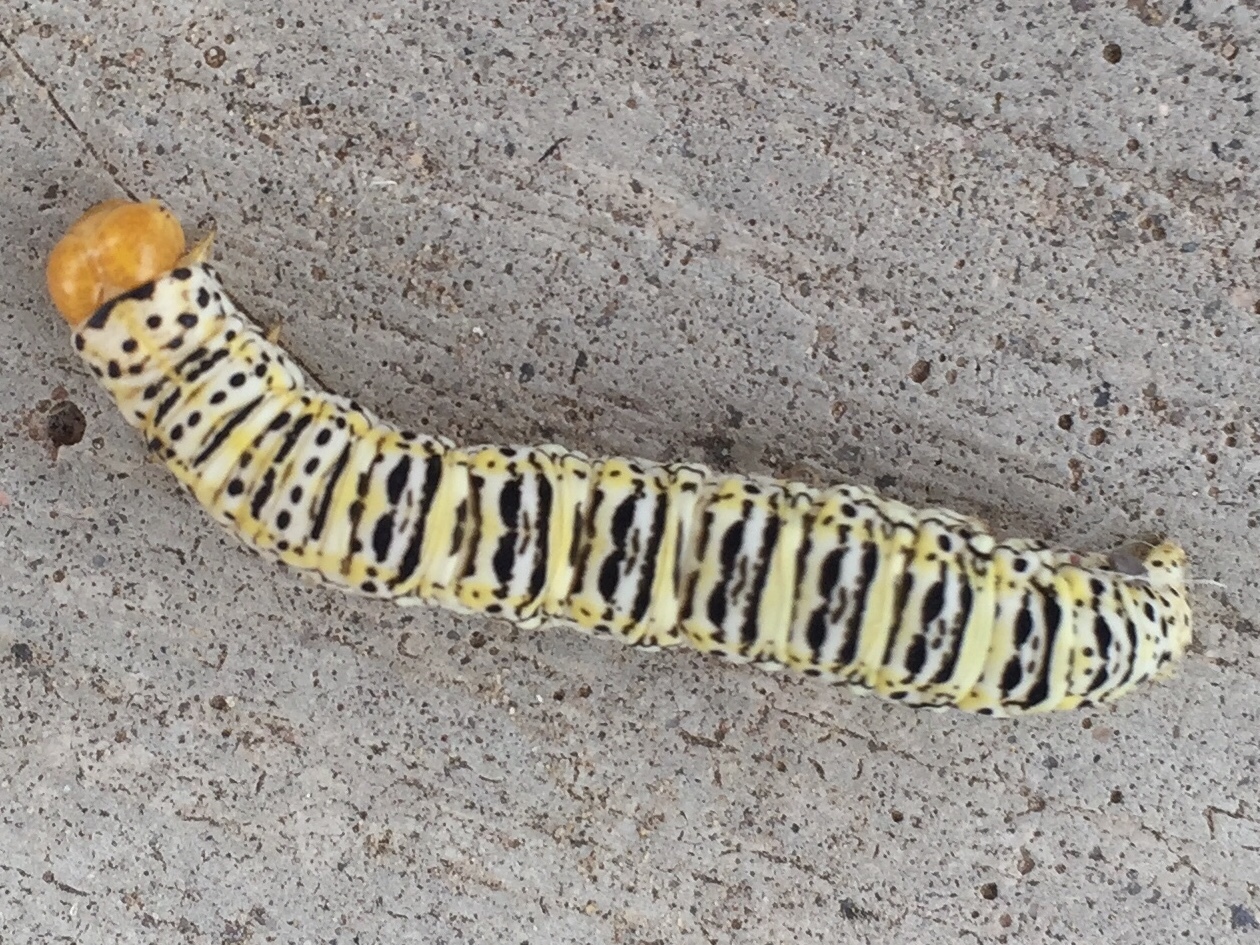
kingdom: Animalia
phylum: Arthropoda
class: Insecta
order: Lepidoptera
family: Noctuidae
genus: Basilodes
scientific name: Basilodes chrysopis
